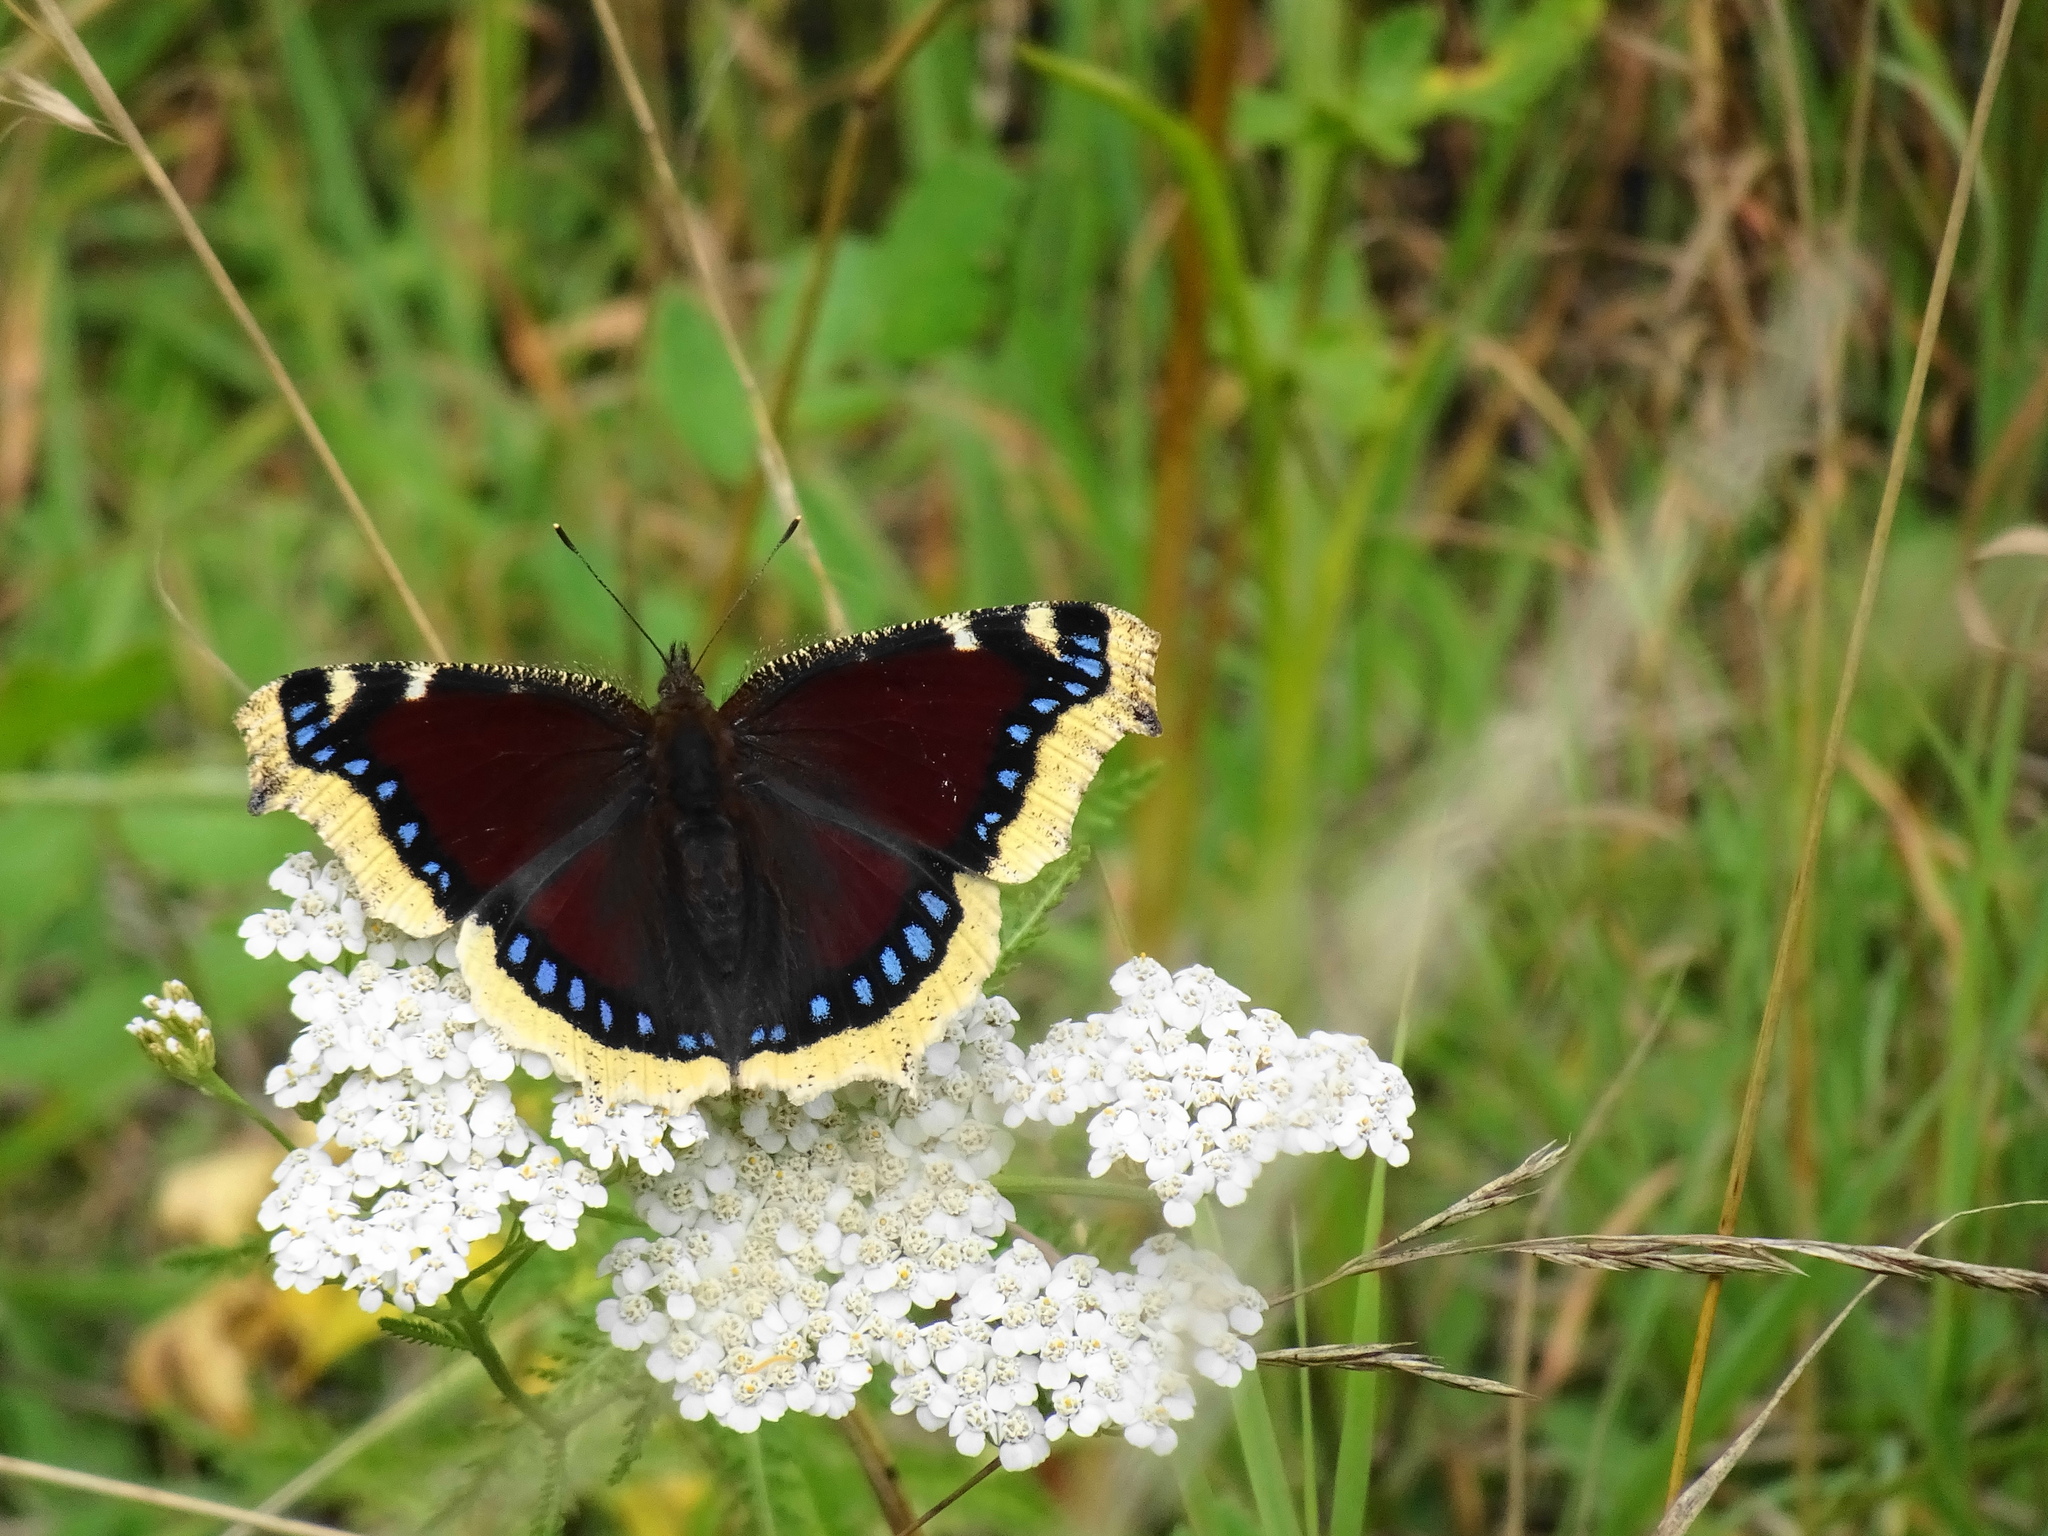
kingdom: Animalia
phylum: Arthropoda
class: Insecta
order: Lepidoptera
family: Nymphalidae
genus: Nymphalis
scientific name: Nymphalis antiopa
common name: Camberwell beauty
